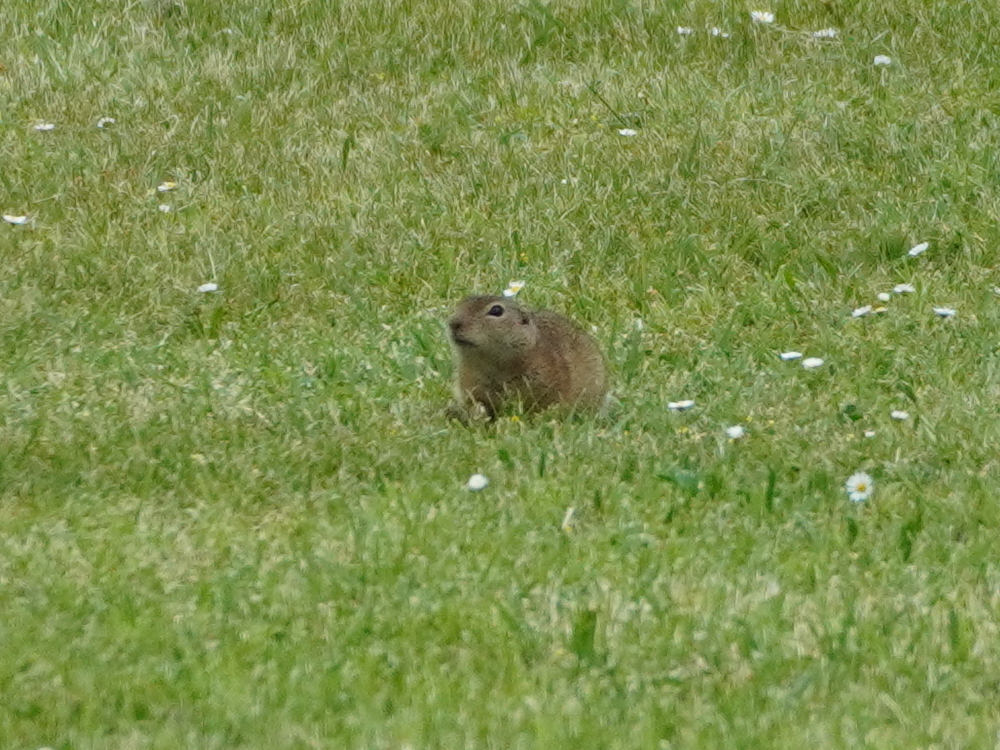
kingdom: Animalia
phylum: Chordata
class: Mammalia
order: Rodentia
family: Sciuridae
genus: Spermophilus
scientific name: Spermophilus citellus
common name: European ground squirrel
